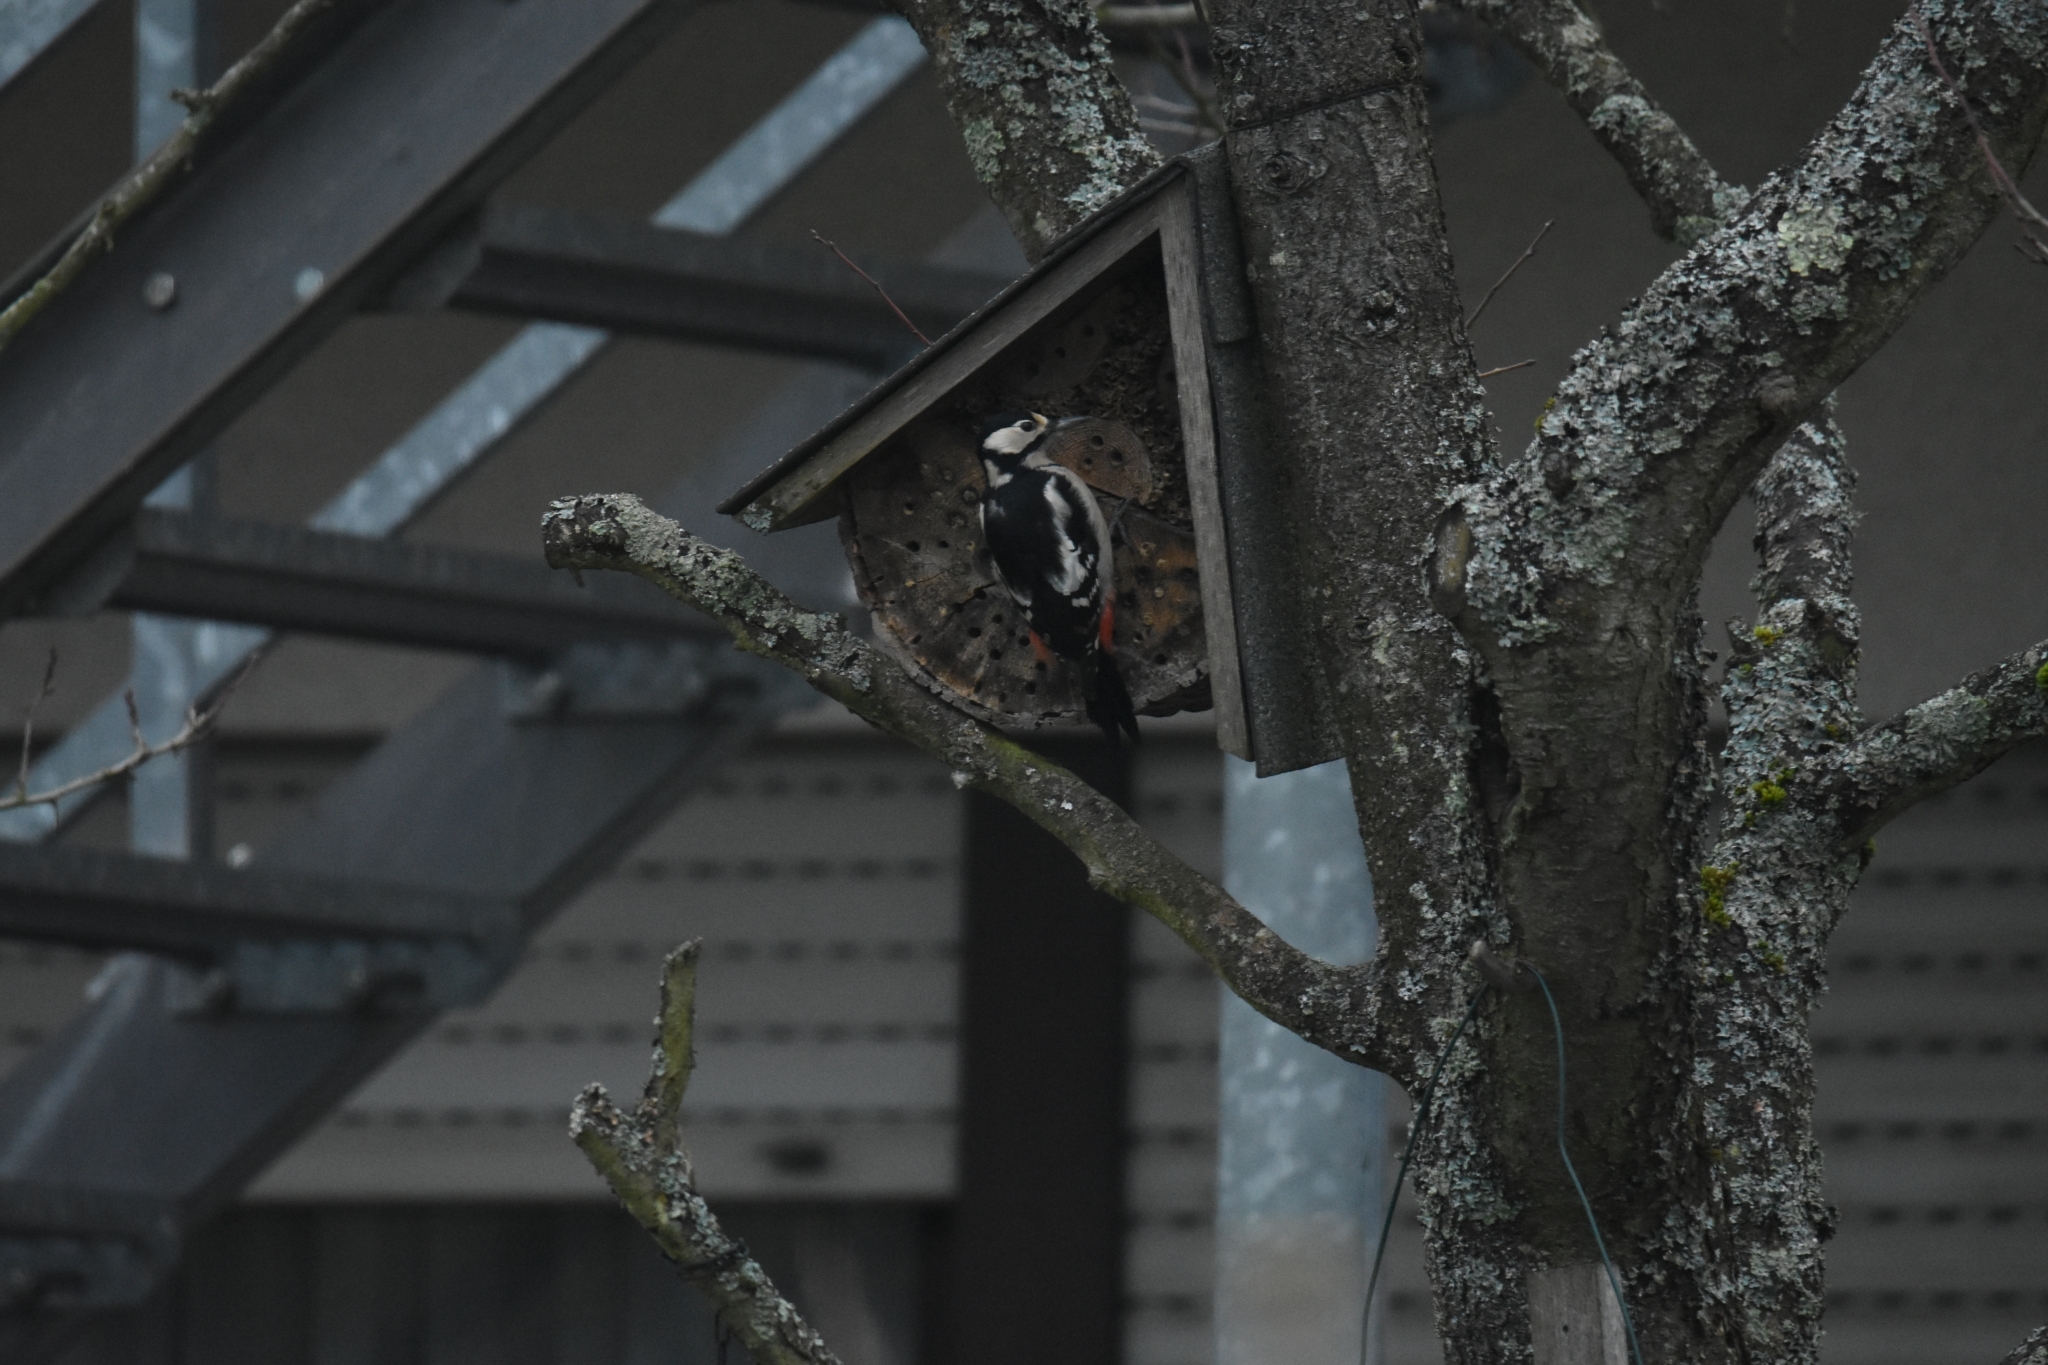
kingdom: Animalia
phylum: Chordata
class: Aves
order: Piciformes
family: Picidae
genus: Dendrocopos
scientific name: Dendrocopos major
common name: Great spotted woodpecker
